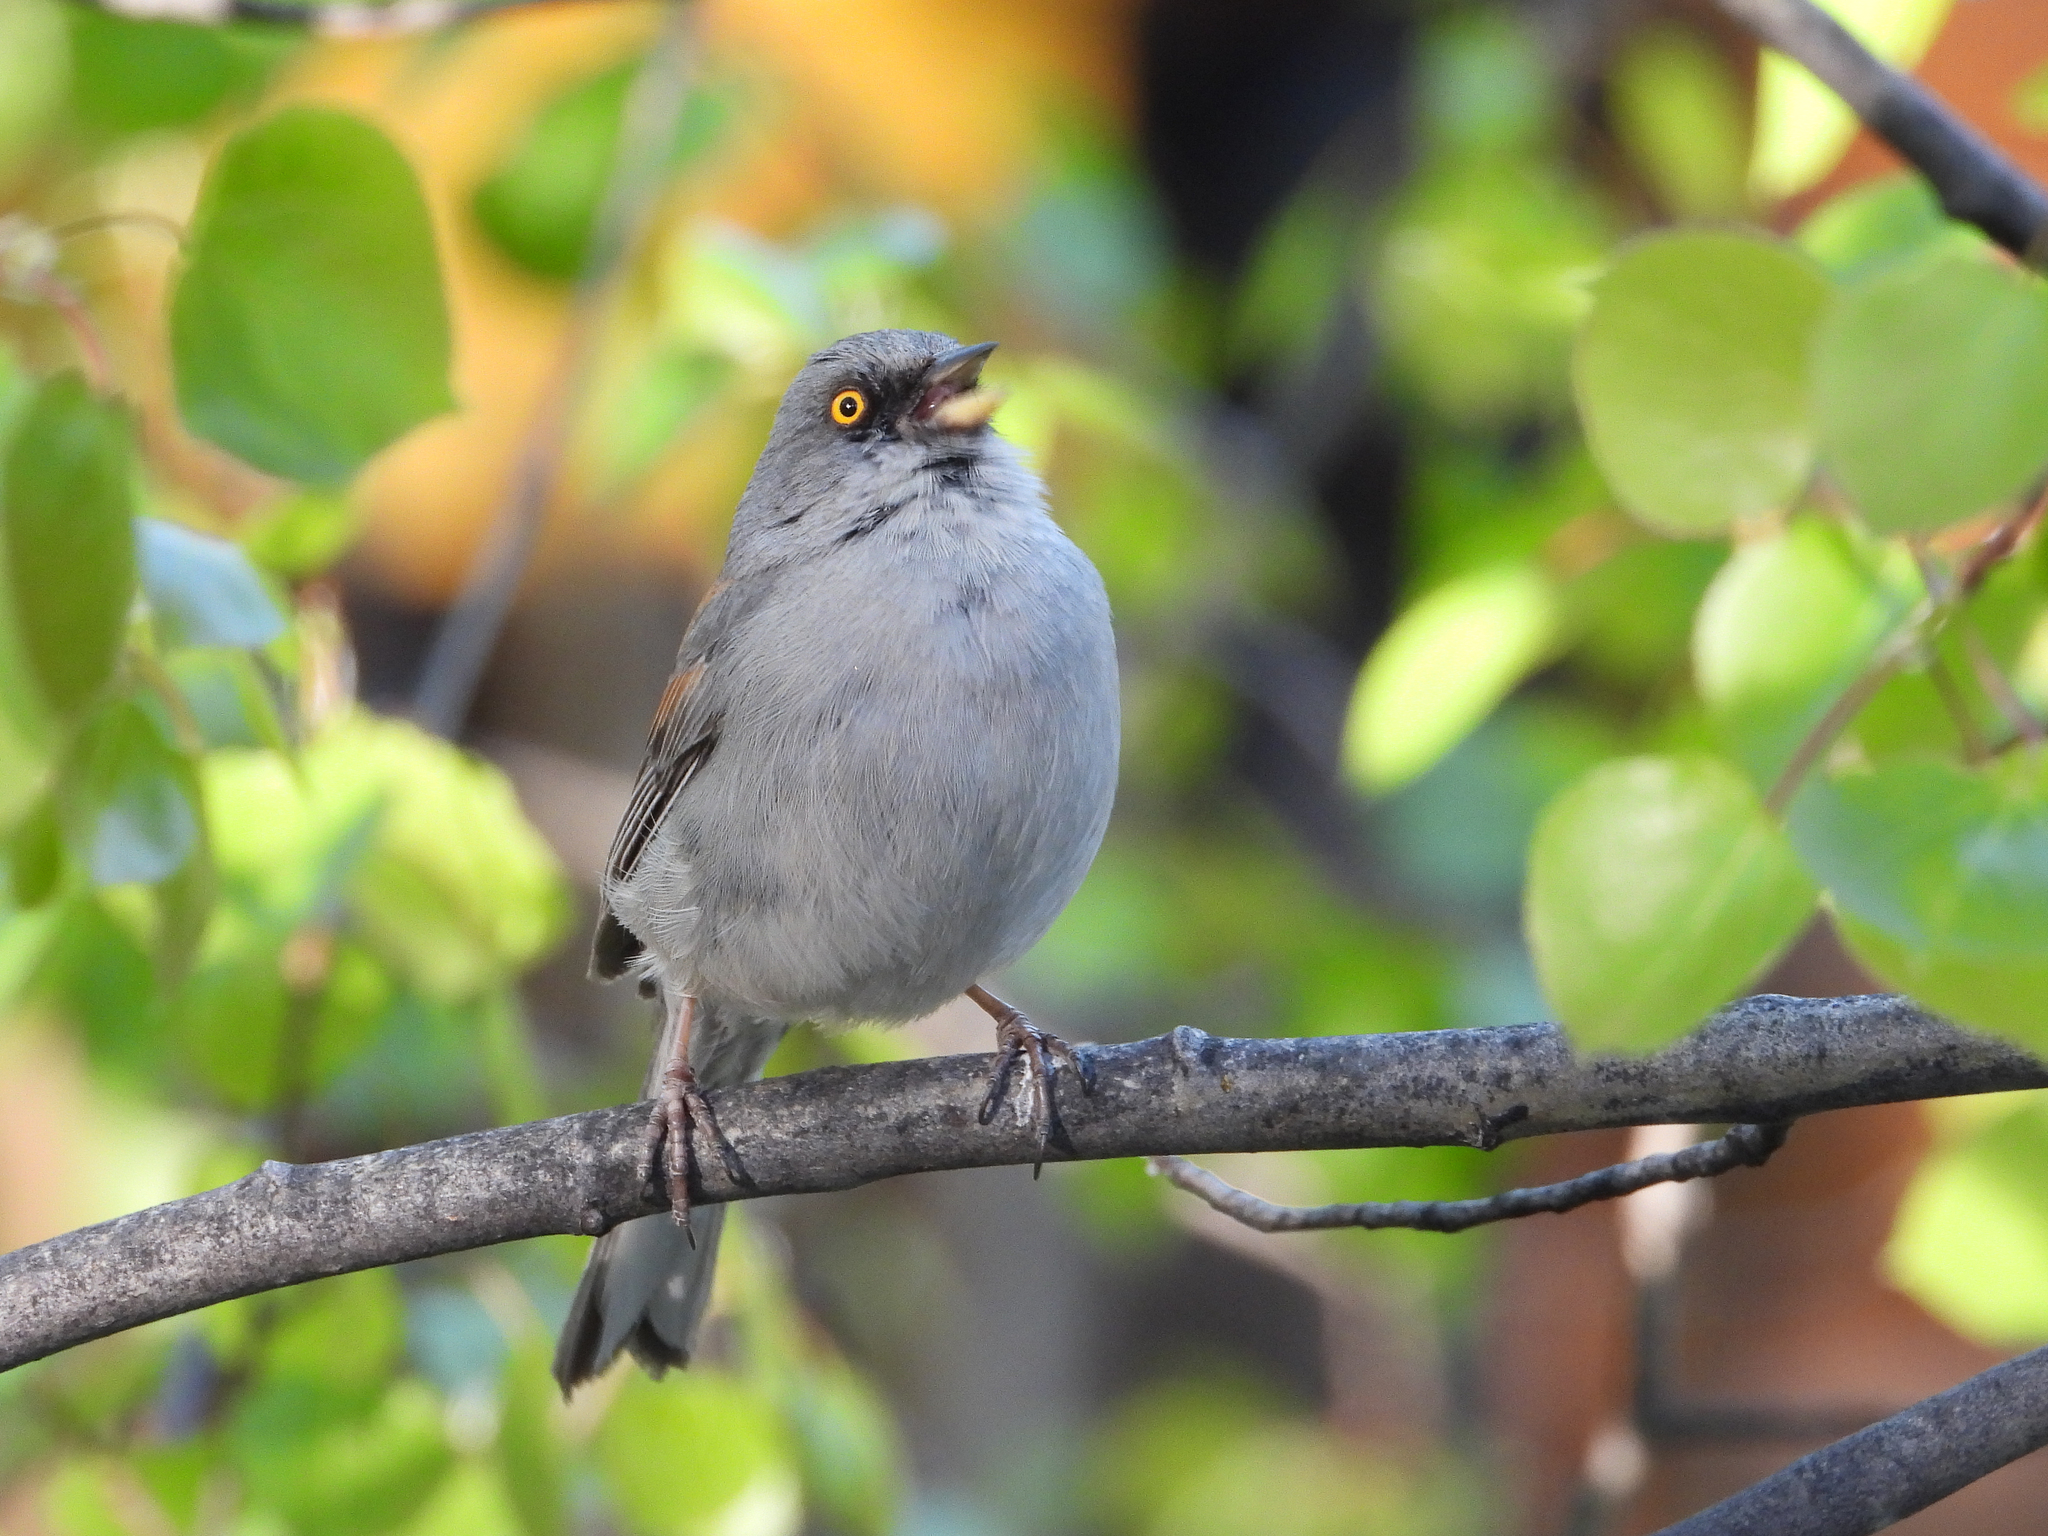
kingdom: Animalia
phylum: Chordata
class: Aves
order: Passeriformes
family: Passerellidae
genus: Junco
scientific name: Junco phaeonotus
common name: Yellow-eyed junco
